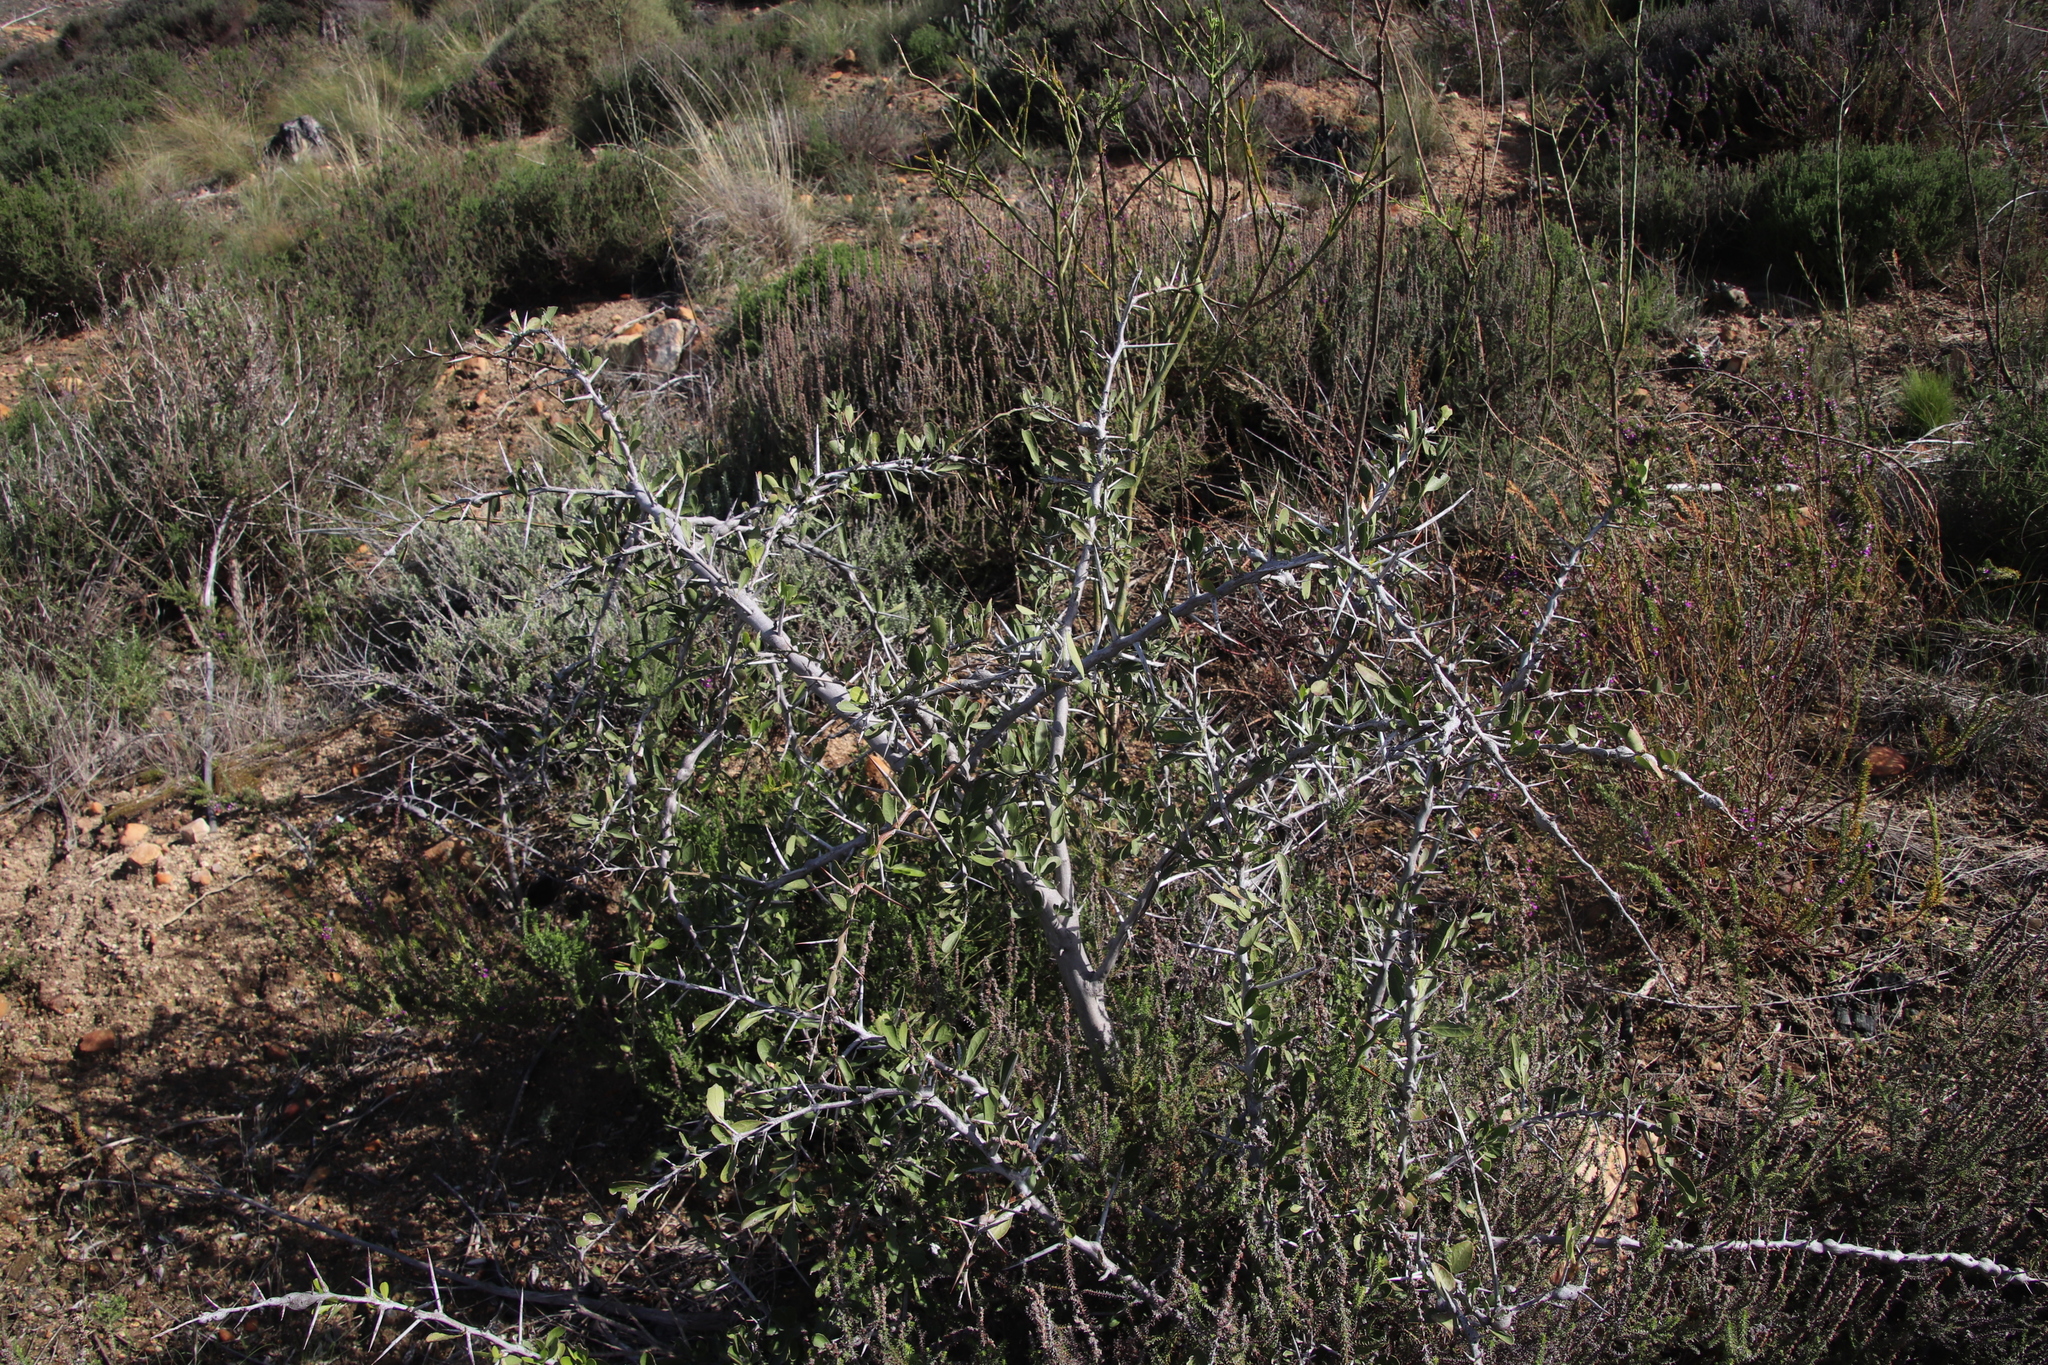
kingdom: Plantae
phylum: Tracheophyta
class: Magnoliopsida
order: Celastrales
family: Celastraceae
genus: Gymnosporia
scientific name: Gymnosporia buxifolia
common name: Common spike-thorn
